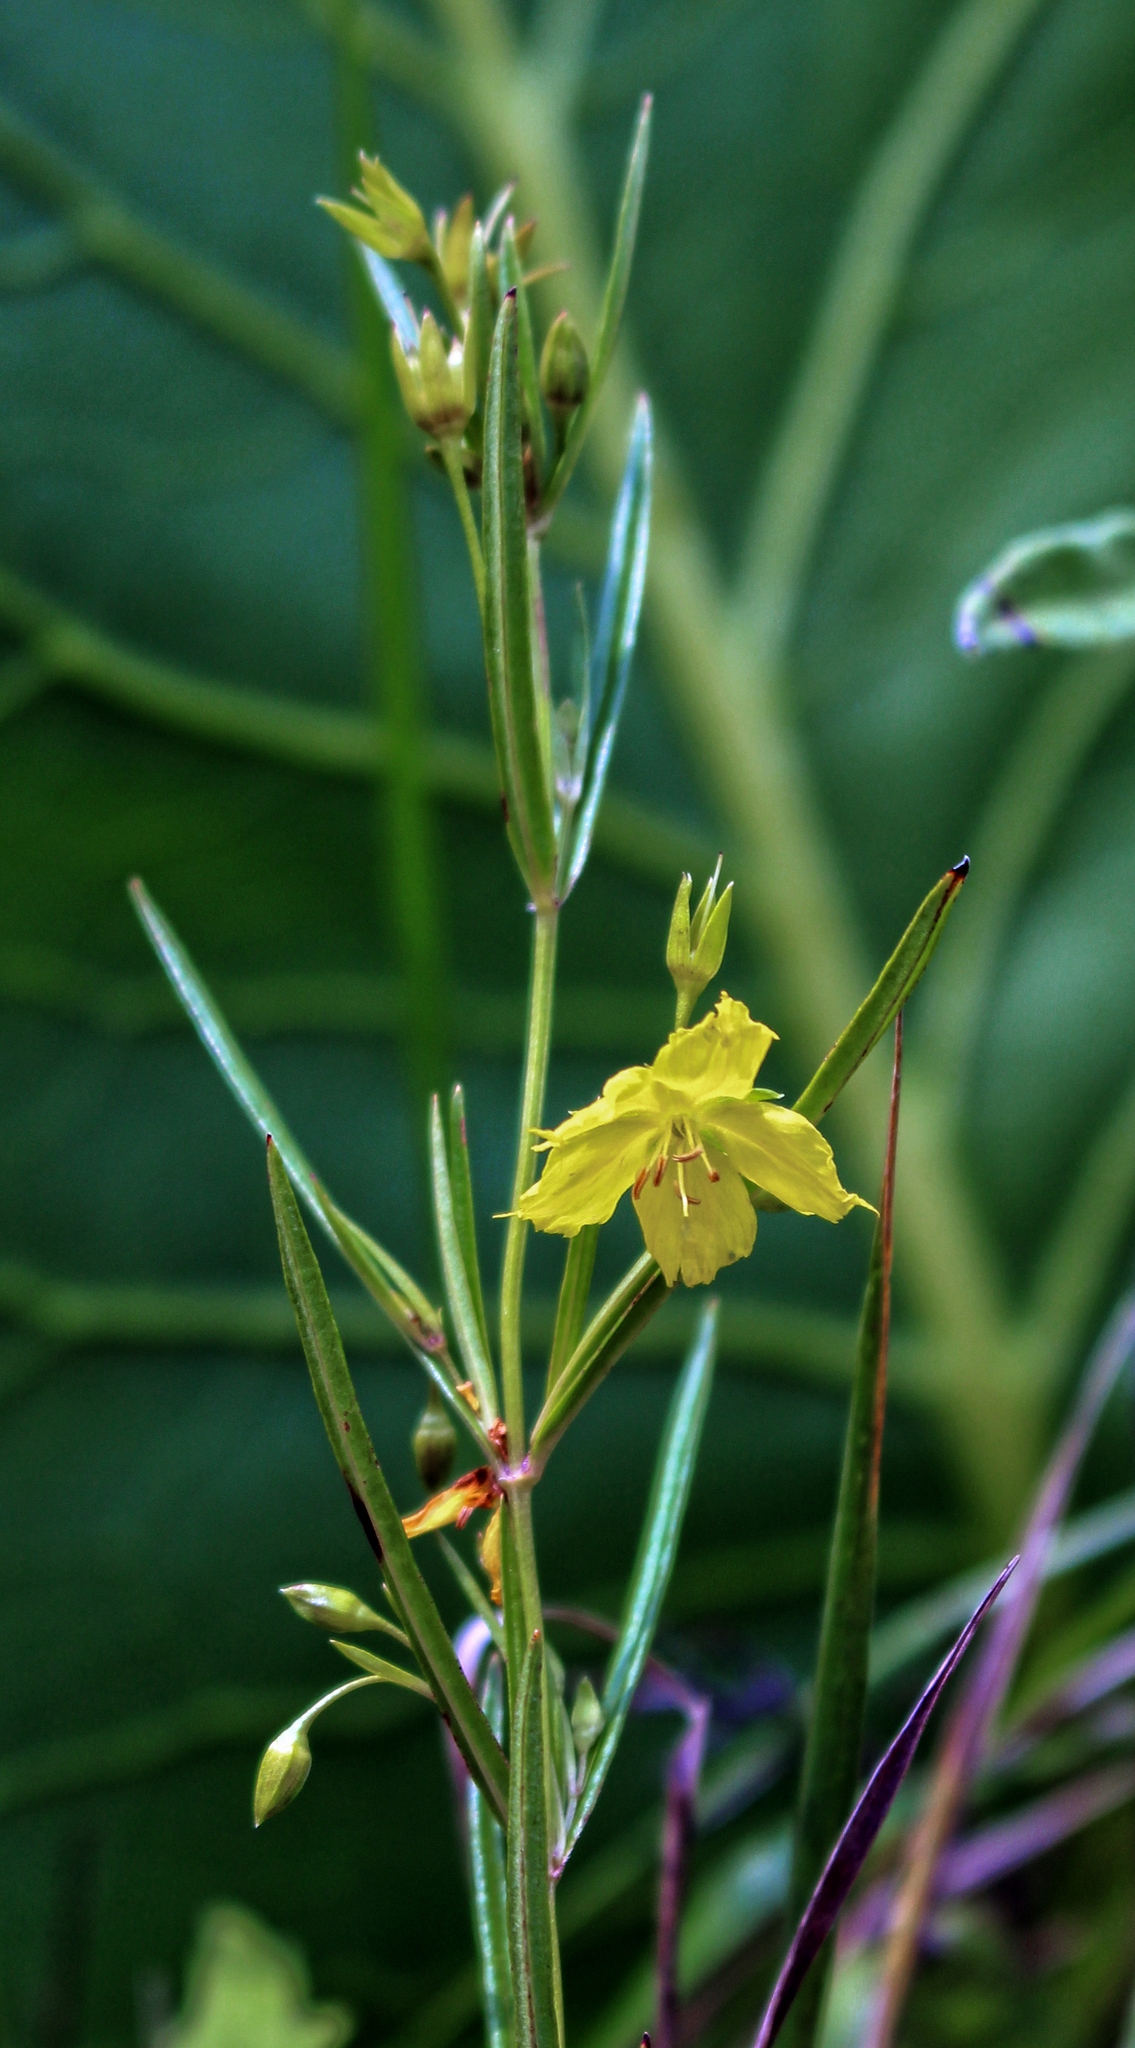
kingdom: Plantae
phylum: Tracheophyta
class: Magnoliopsida
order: Ericales
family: Primulaceae
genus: Lysimachia
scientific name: Lysimachia quadriflora
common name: Four-flowered loosestrife
